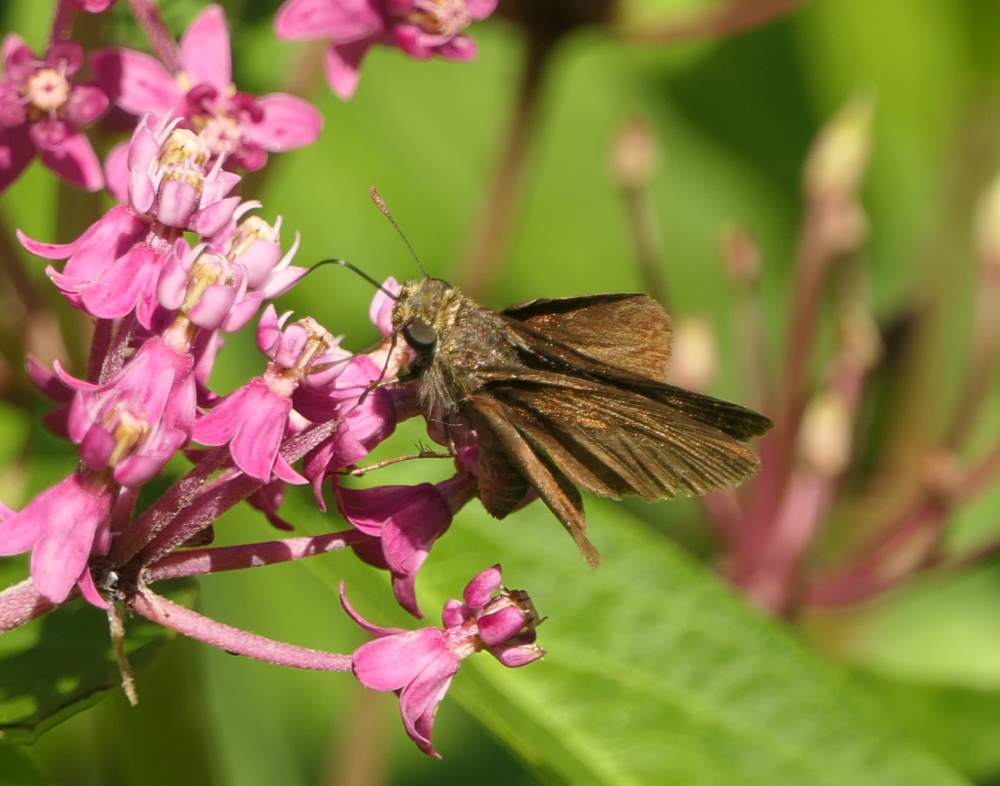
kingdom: Animalia
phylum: Arthropoda
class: Insecta
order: Lepidoptera
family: Hesperiidae
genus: Euphyes
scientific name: Euphyes vestris
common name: Dun skipper
